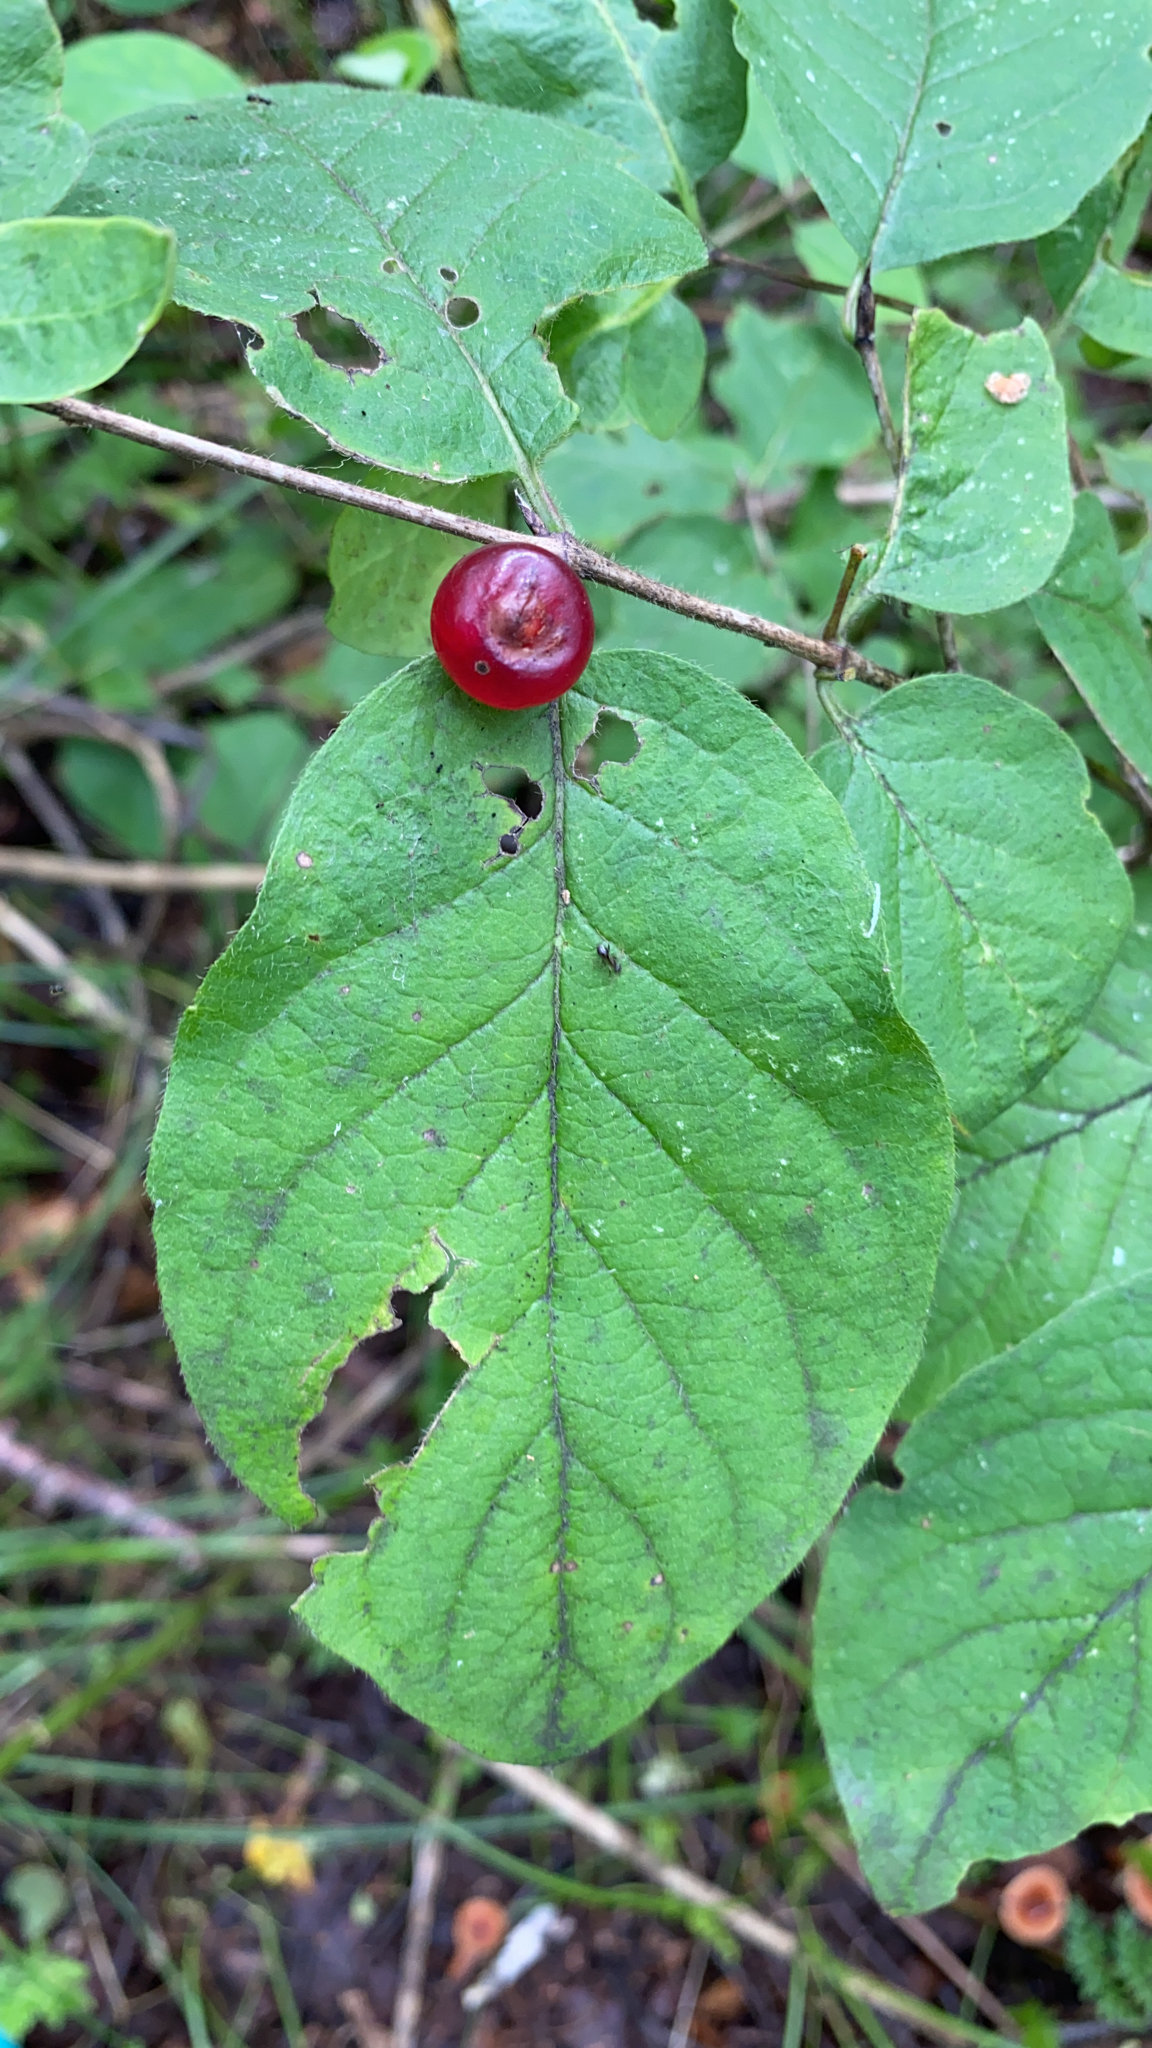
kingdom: Plantae
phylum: Tracheophyta
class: Magnoliopsida
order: Dipsacales
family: Caprifoliaceae
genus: Lonicera
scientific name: Lonicera xylosteum
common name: Fly honeysuckle
